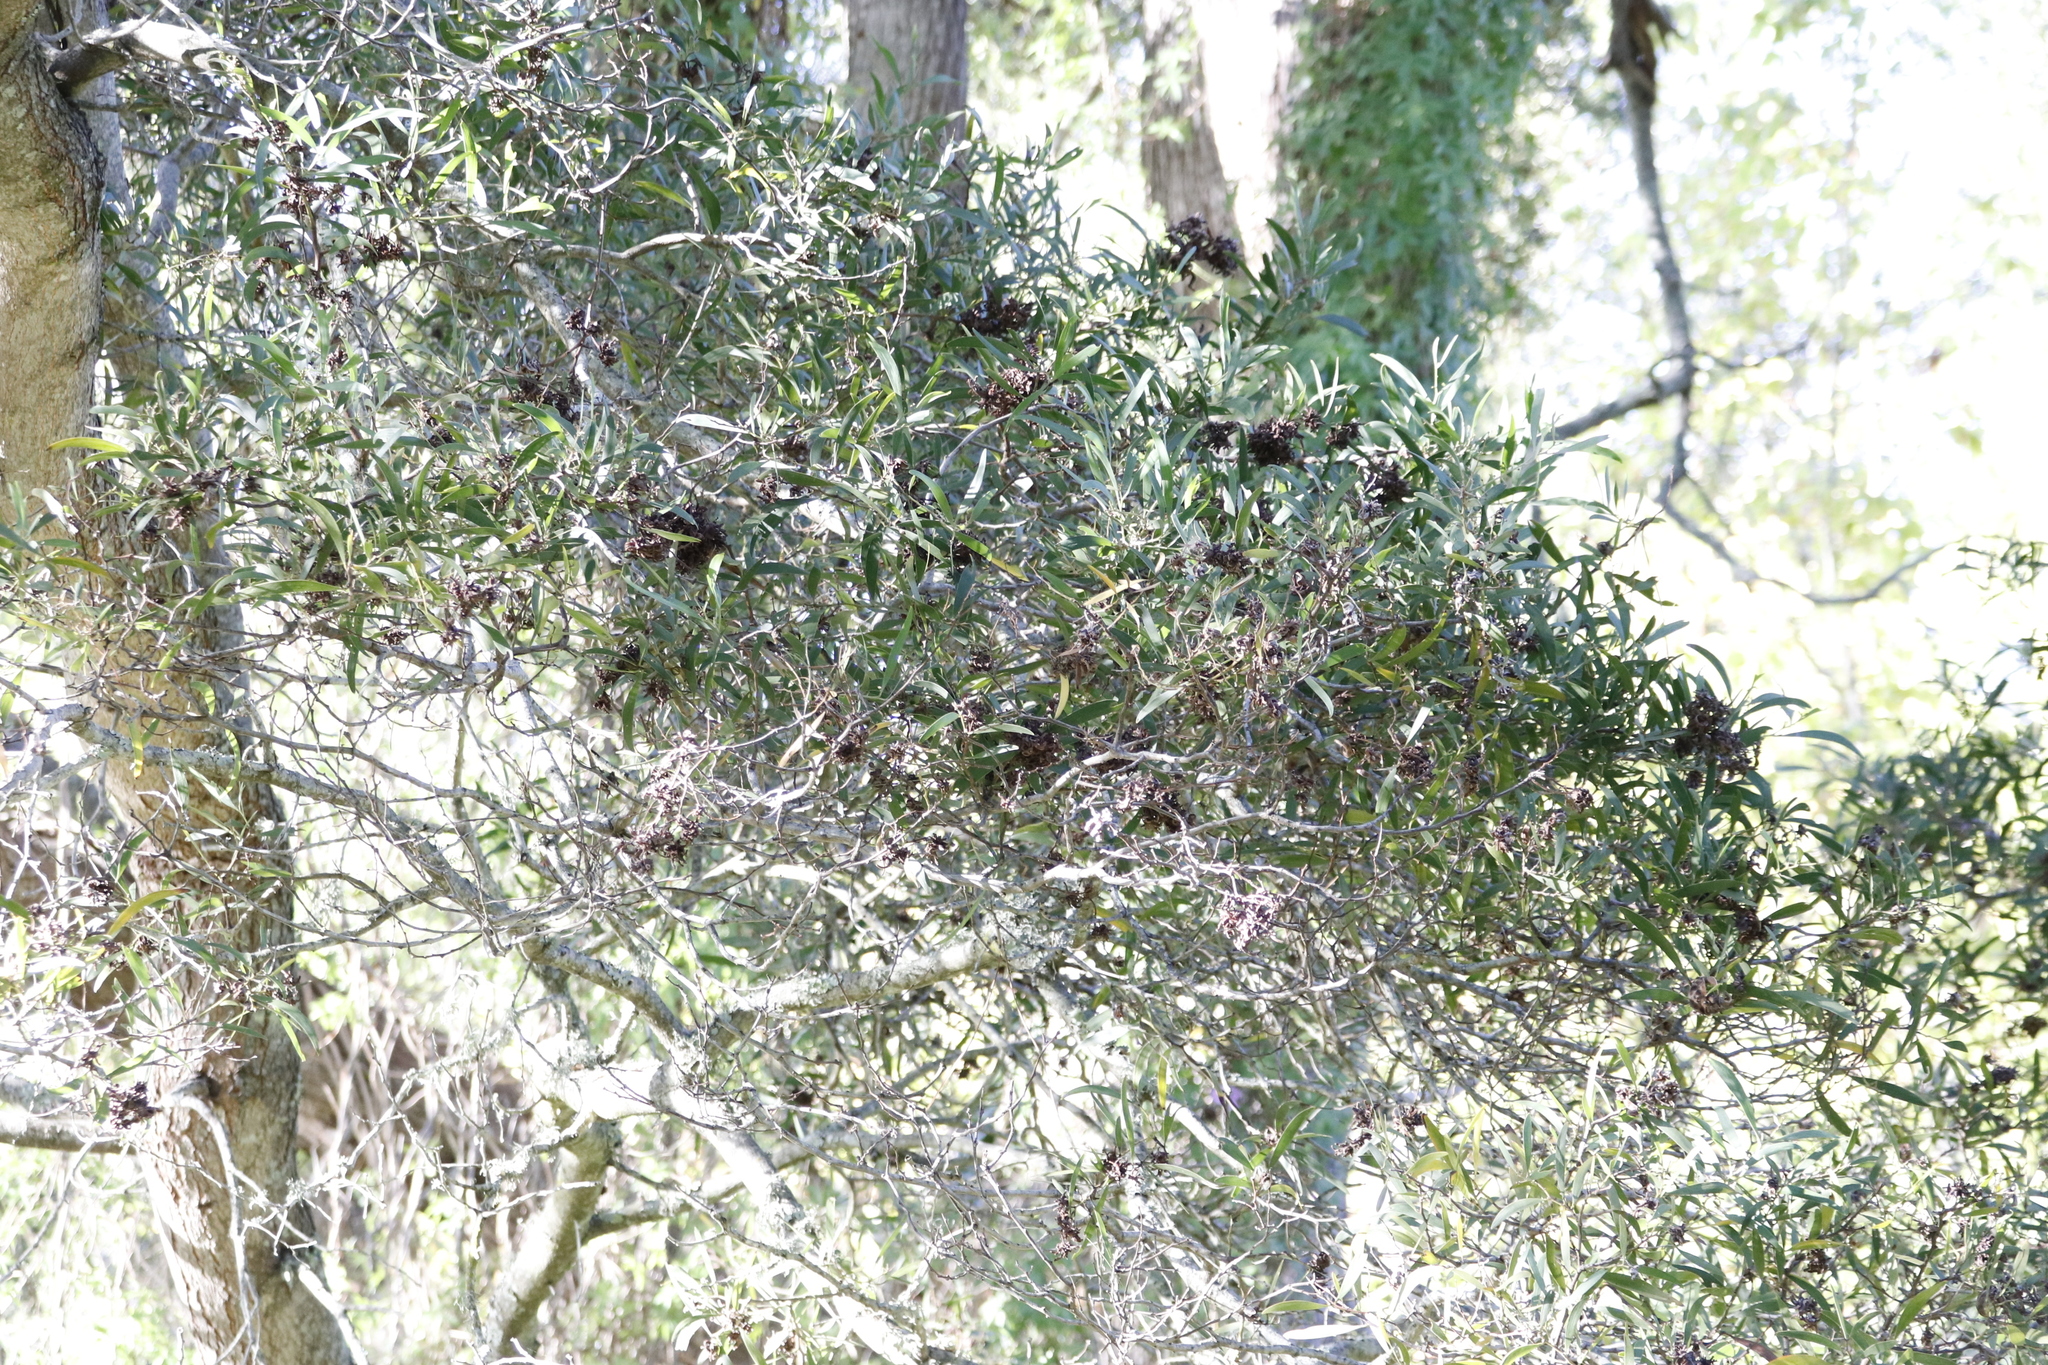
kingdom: Plantae
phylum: Tracheophyta
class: Magnoliopsida
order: Fabales
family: Fabaceae
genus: Acacia
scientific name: Acacia melanoxylon
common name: Blackwood
